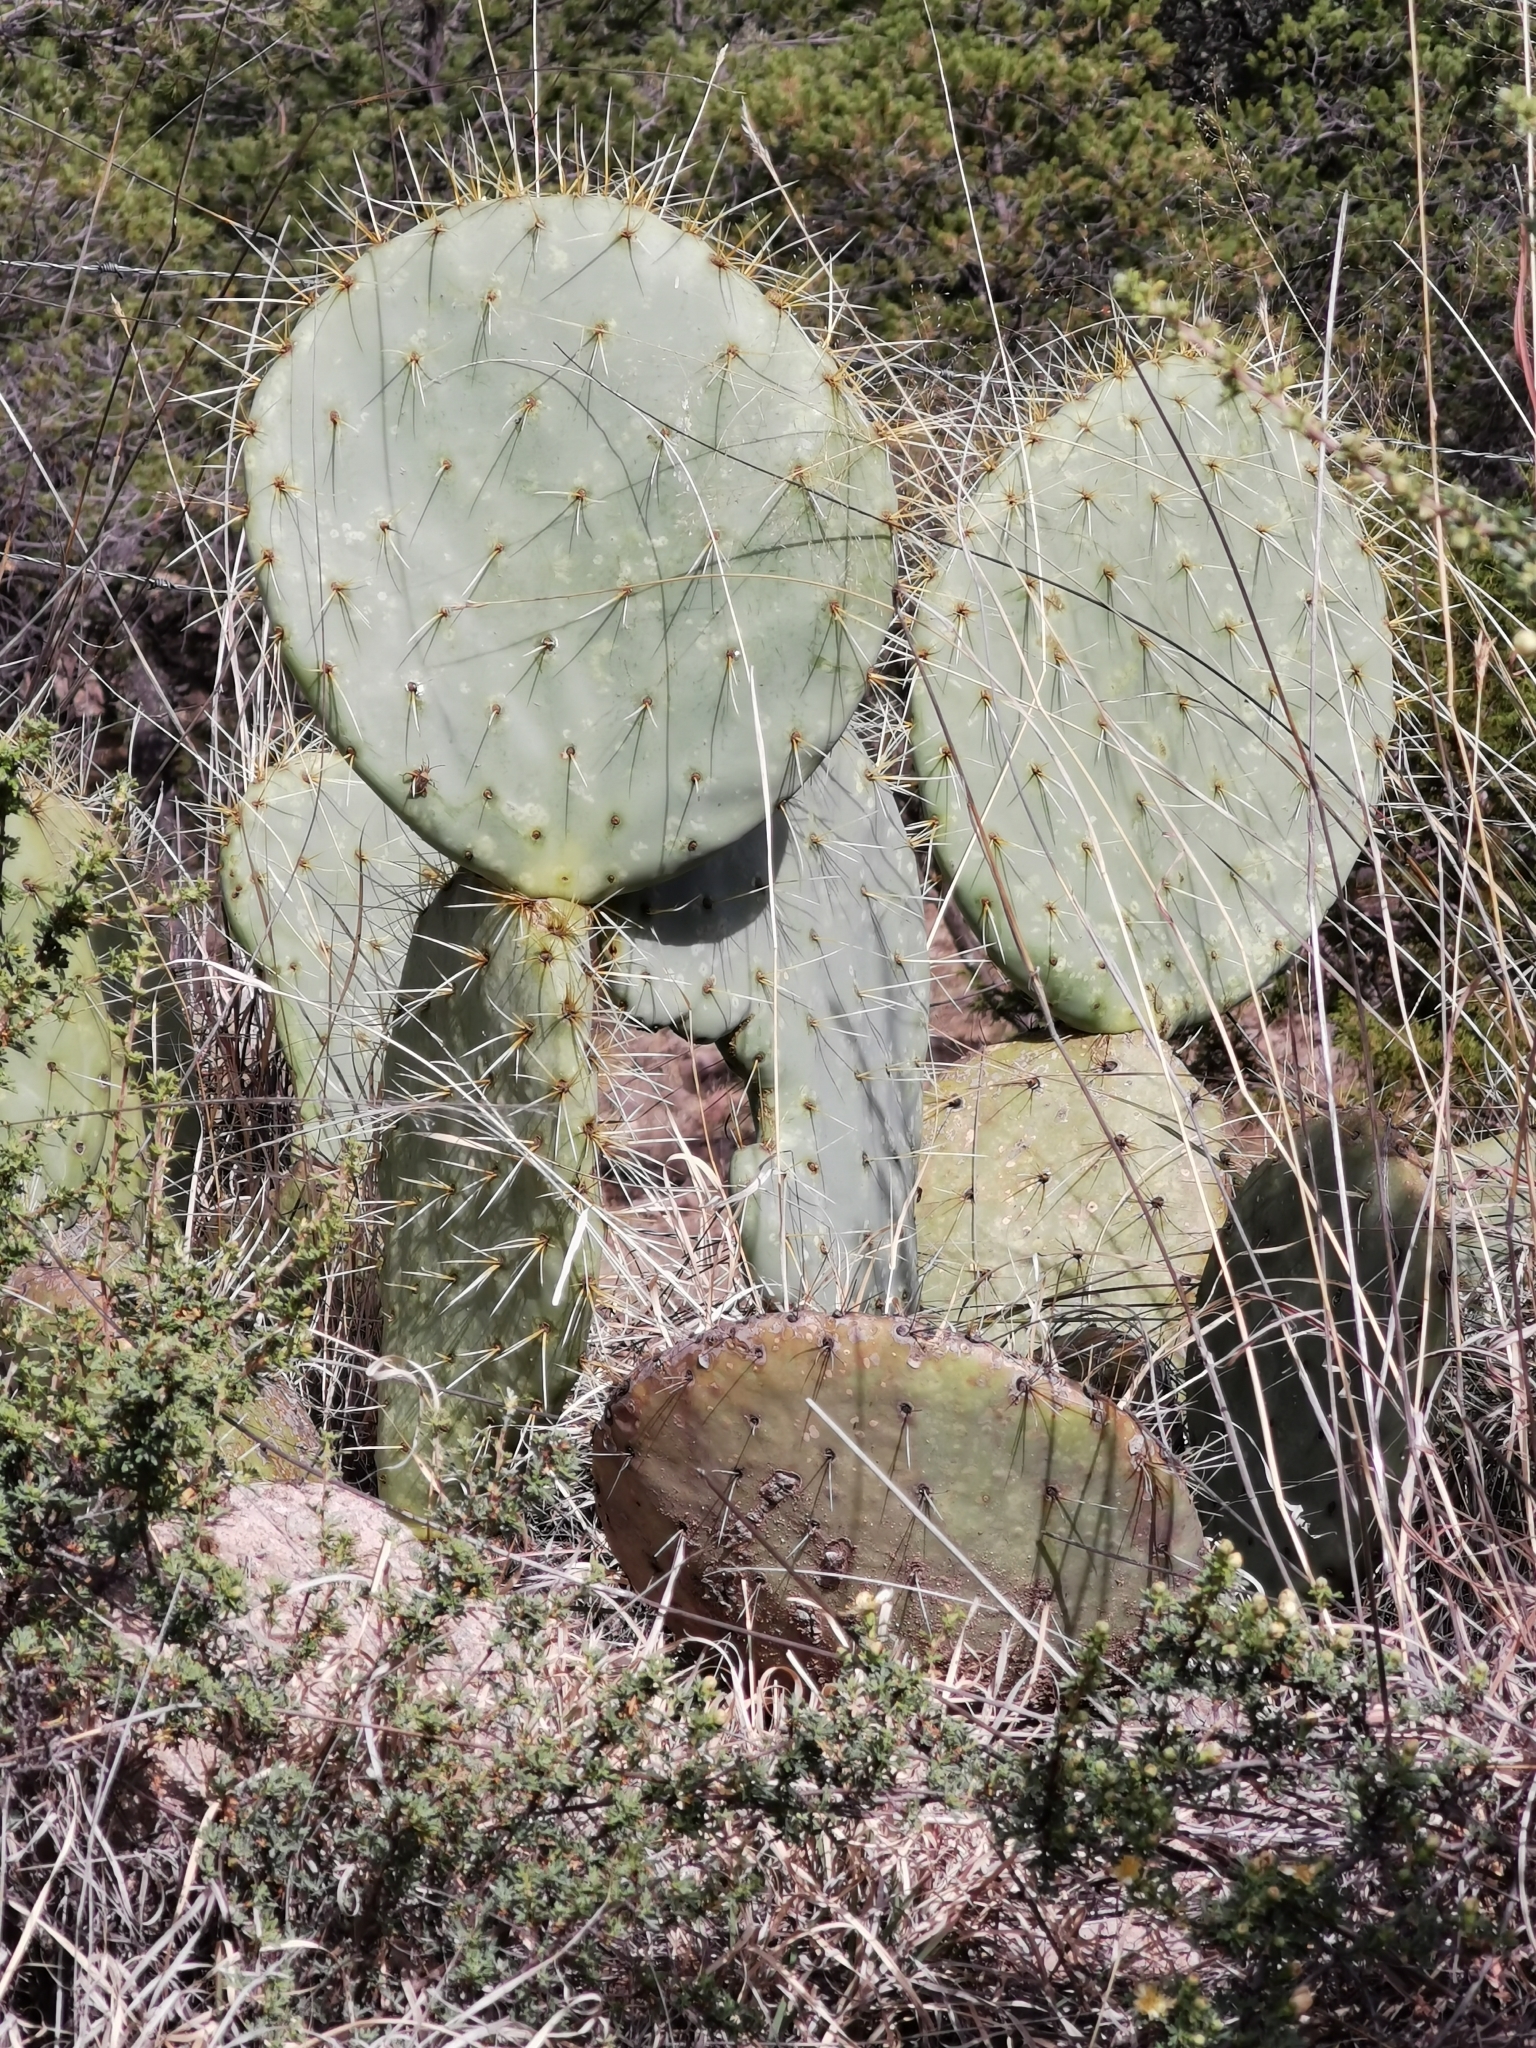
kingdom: Plantae
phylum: Tracheophyta
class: Magnoliopsida
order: Caryophyllales
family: Cactaceae
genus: Opuntia
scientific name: Opuntia robusta
